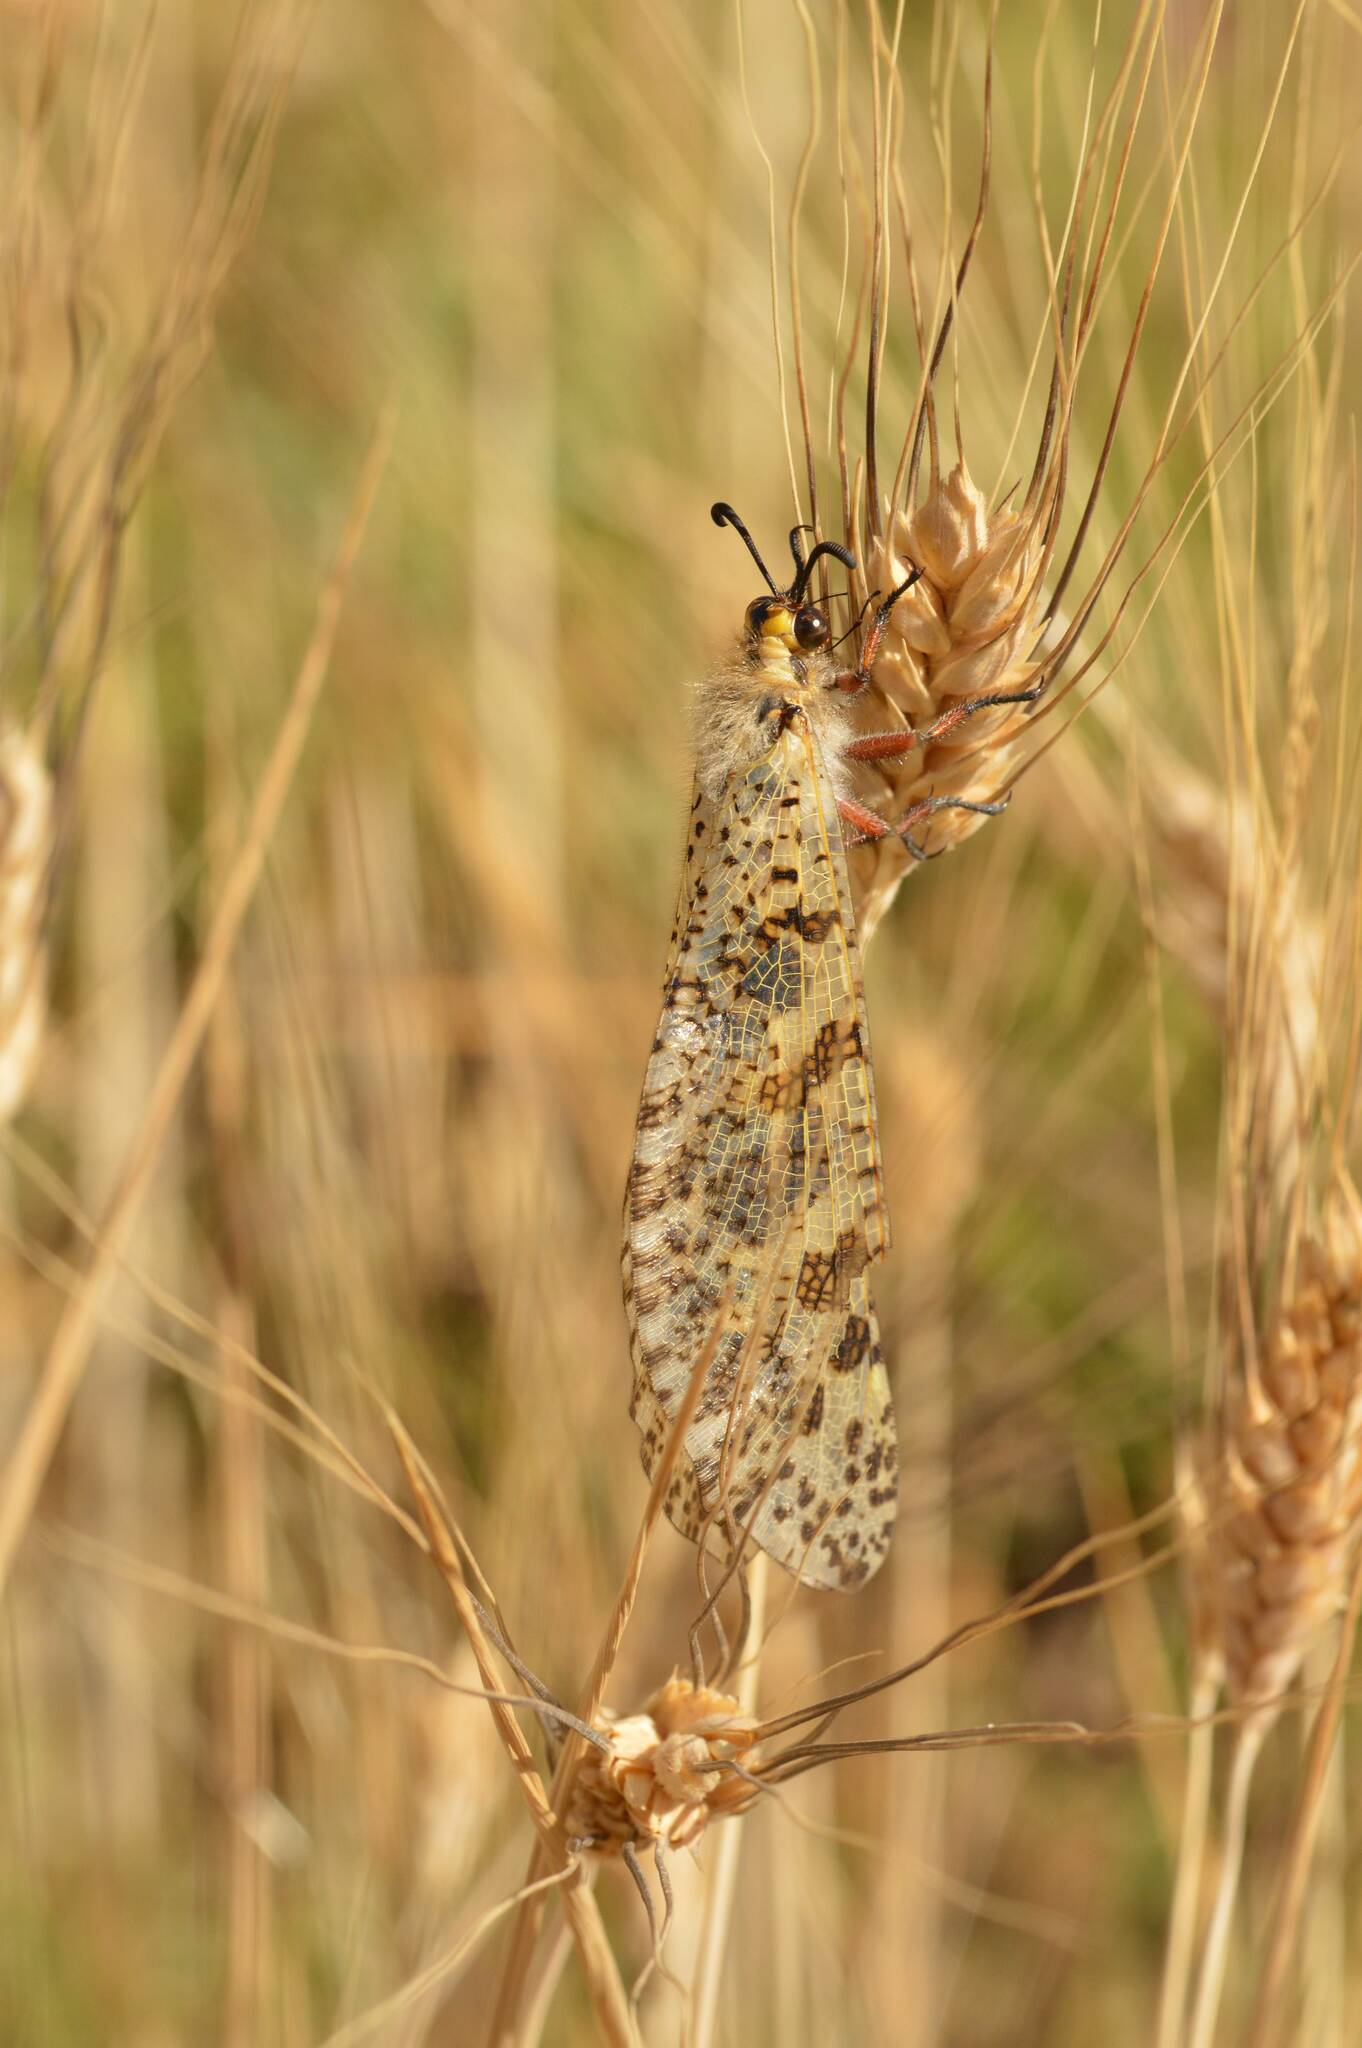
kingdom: Animalia
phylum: Arthropoda
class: Insecta
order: Neuroptera
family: Myrmeleontidae
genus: Palpares
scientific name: Palpares libelluloides
